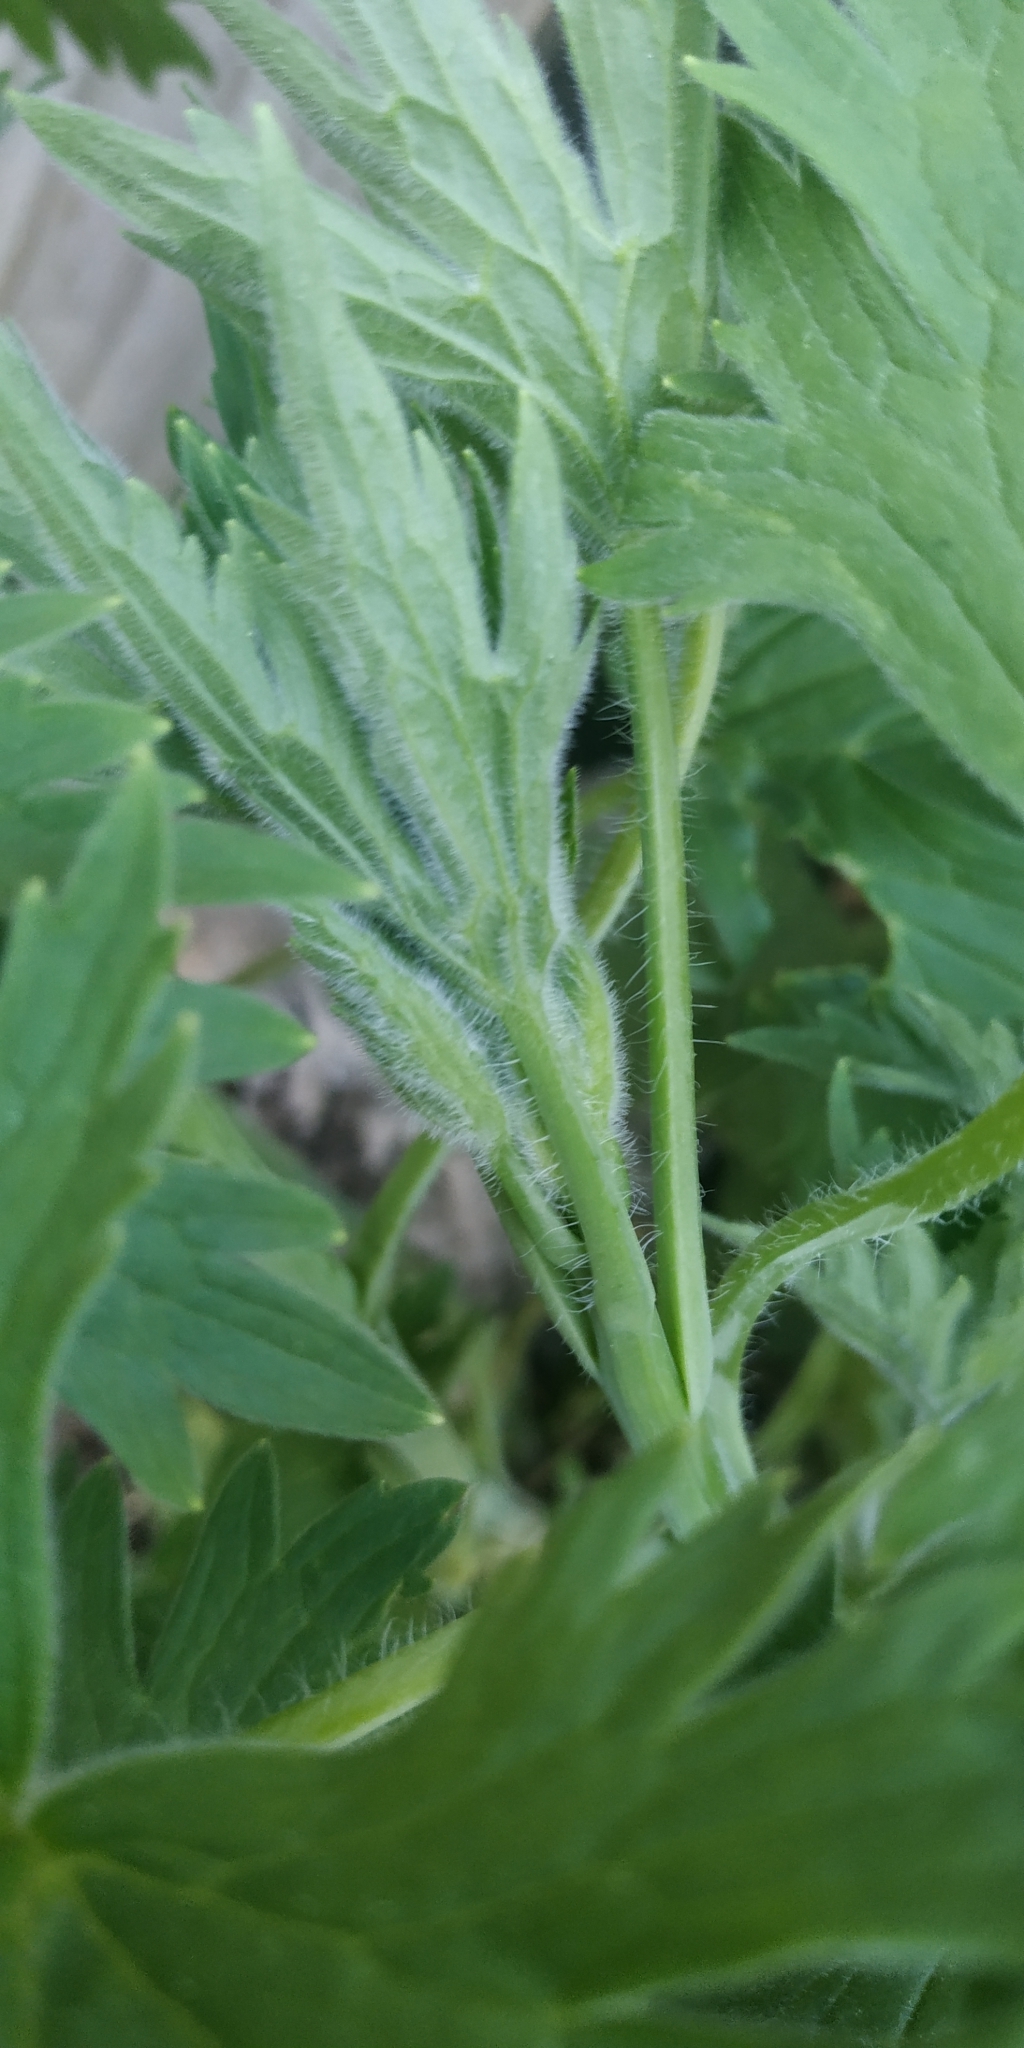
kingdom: Plantae
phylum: Tracheophyta
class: Magnoliopsida
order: Ranunculales
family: Ranunculaceae
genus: Delphinium
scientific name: Delphinium cultorum
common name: Garden delphinium
